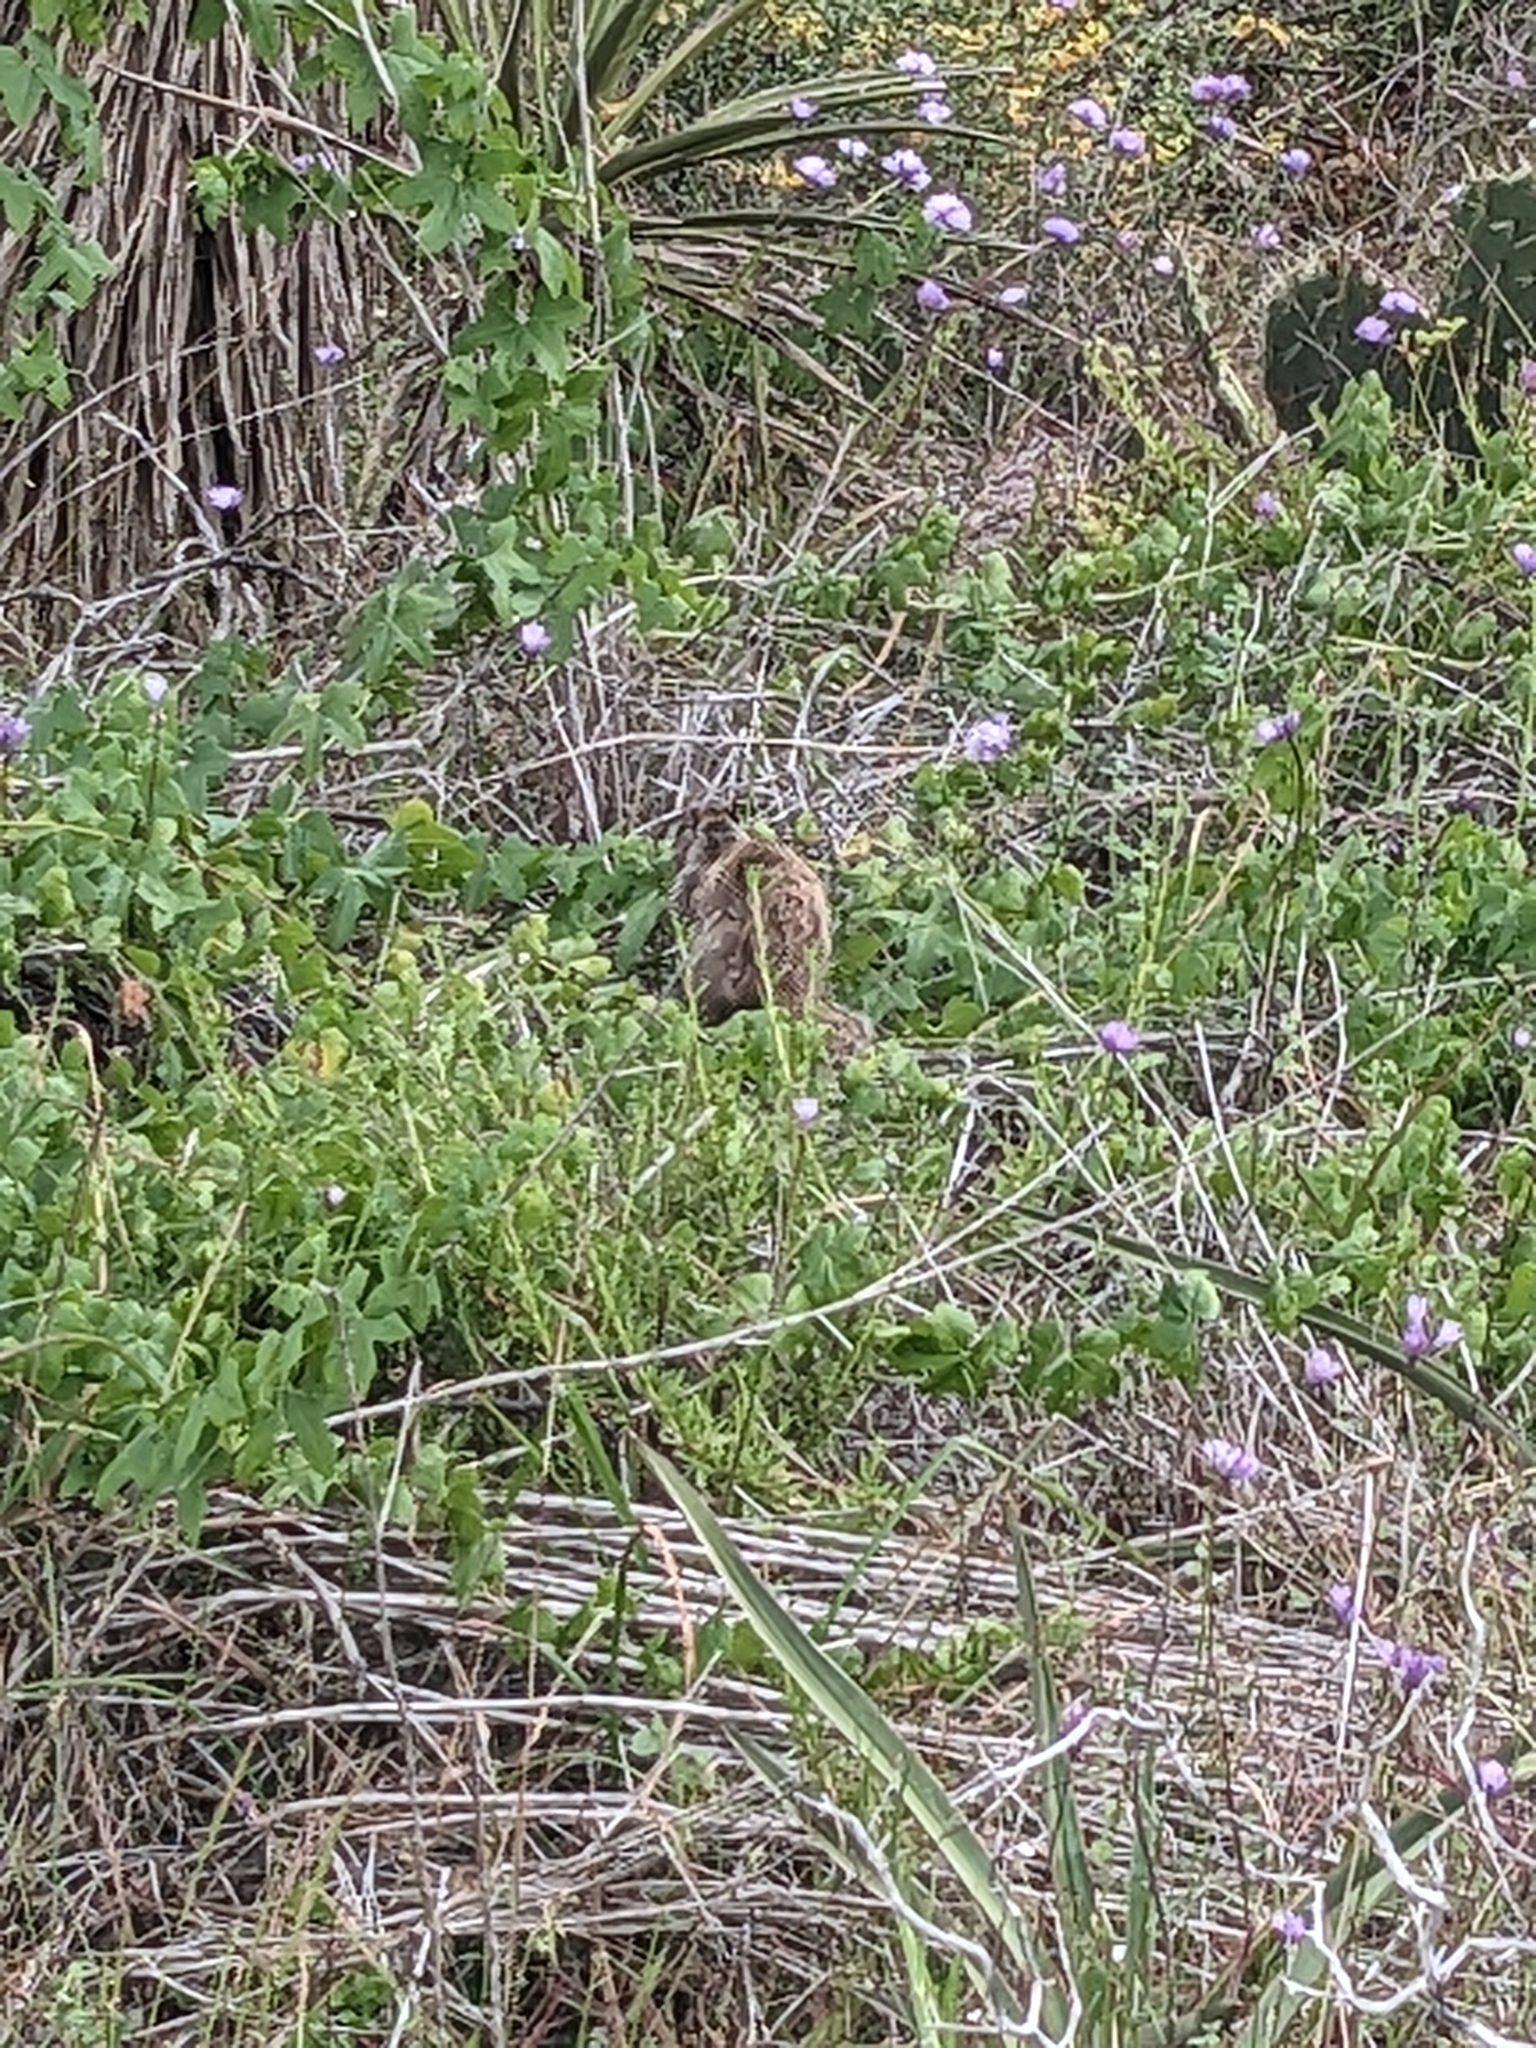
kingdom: Animalia
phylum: Chordata
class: Mammalia
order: Rodentia
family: Sciuridae
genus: Otospermophilus
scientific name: Otospermophilus beecheyi
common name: California ground squirrel
